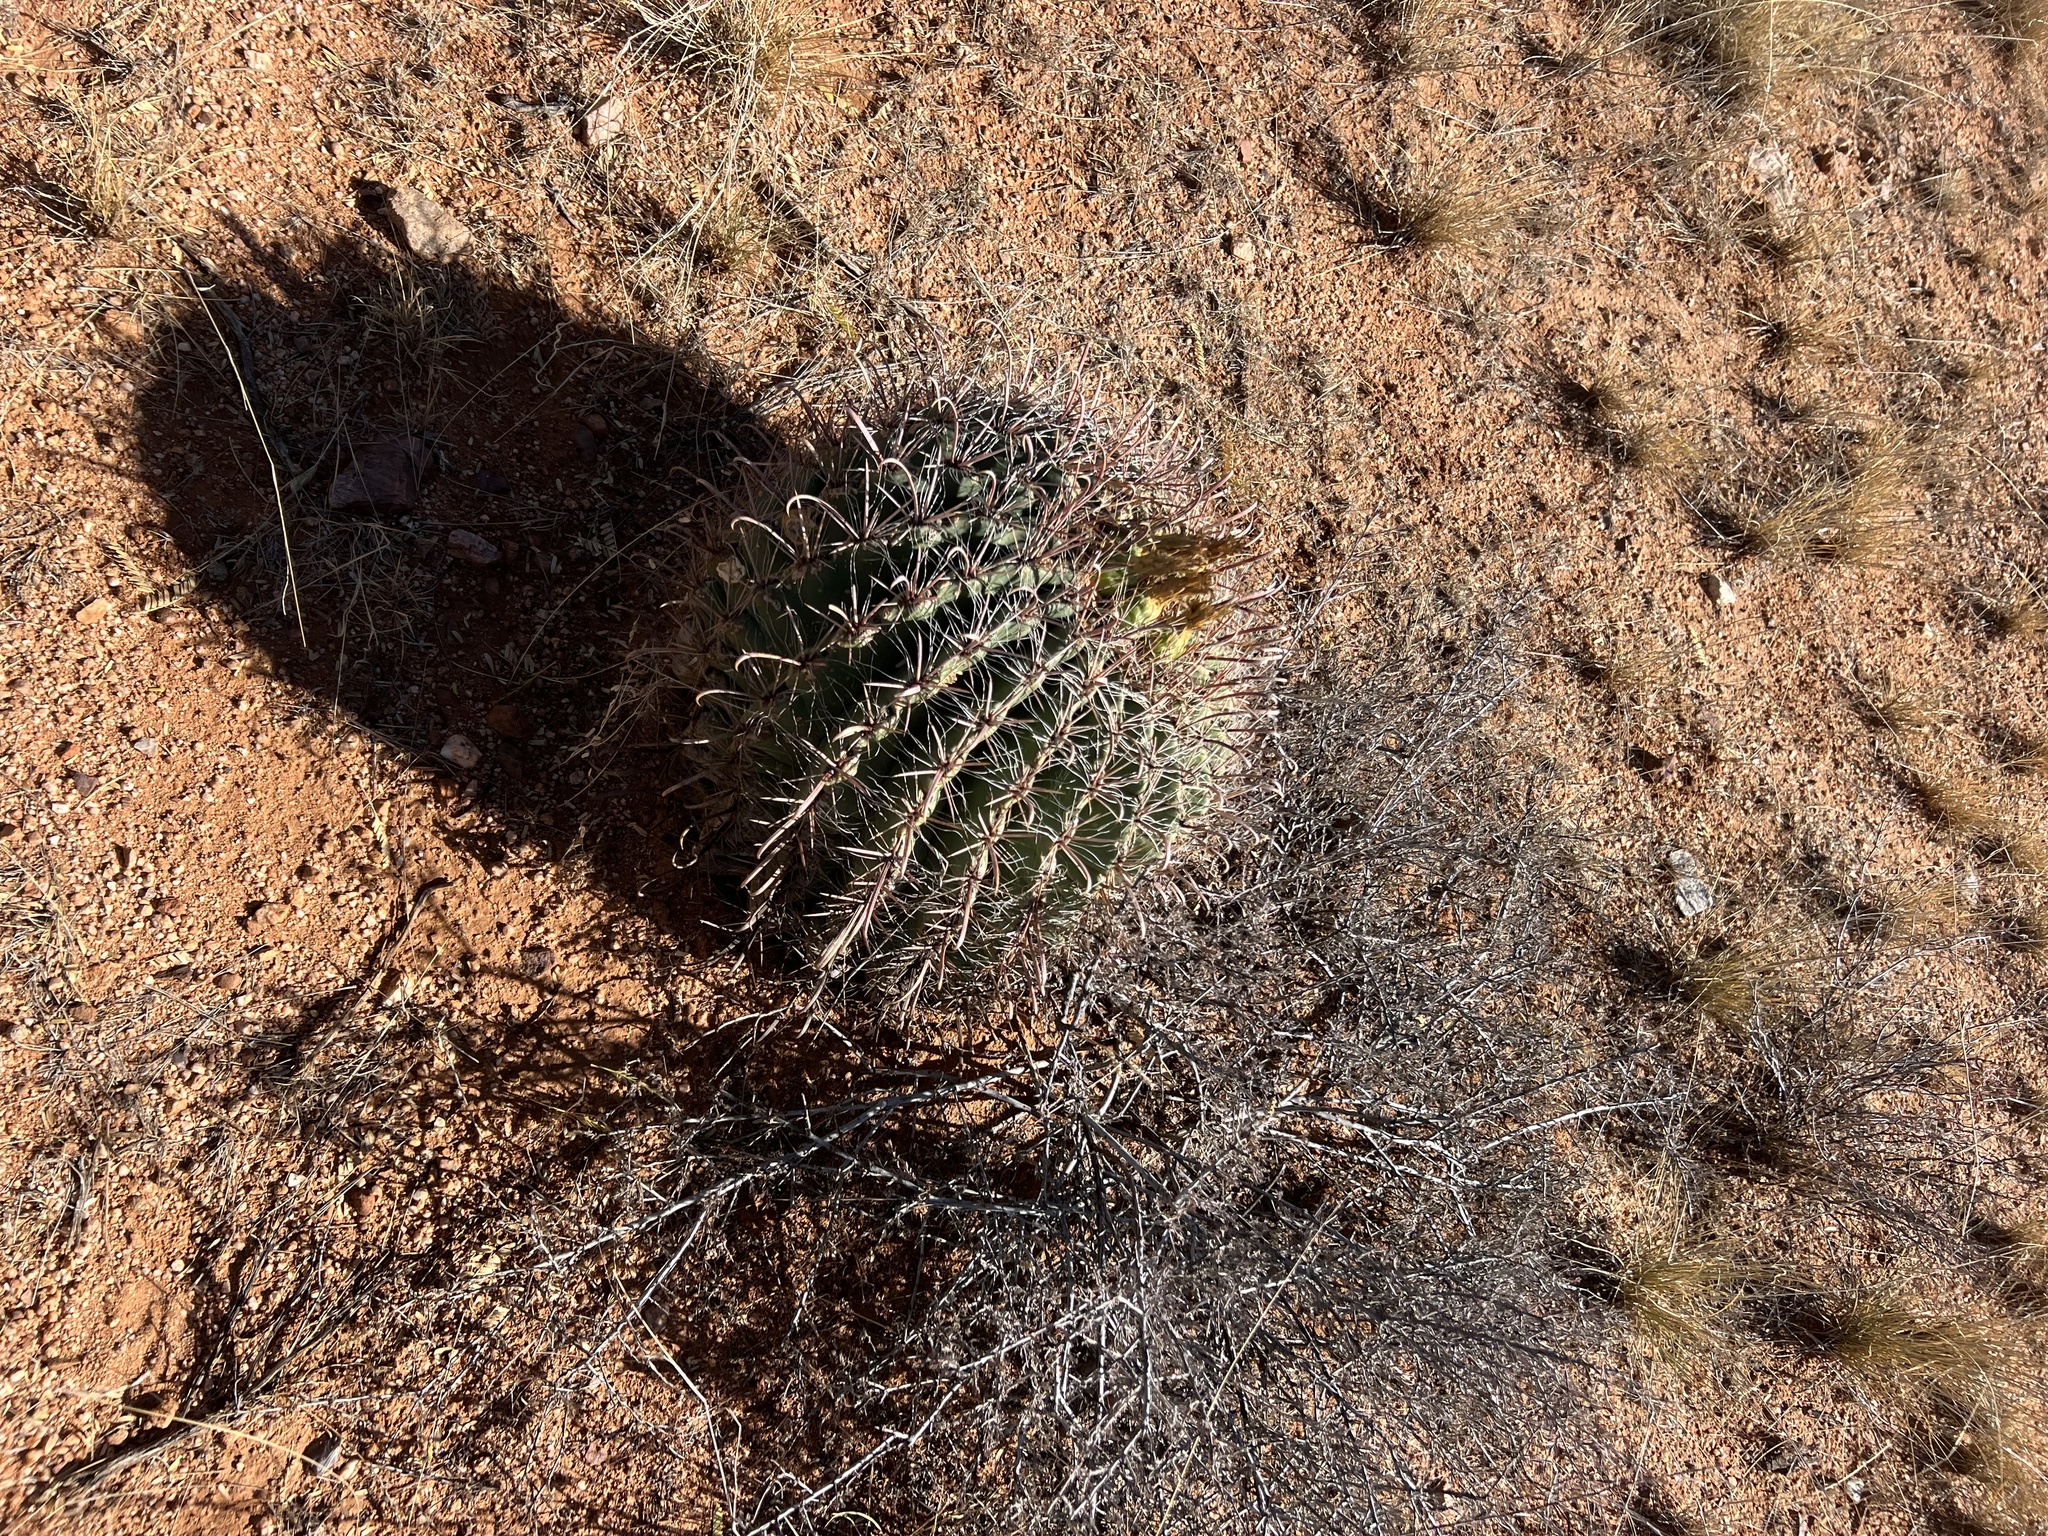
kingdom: Plantae
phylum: Tracheophyta
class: Magnoliopsida
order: Caryophyllales
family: Cactaceae
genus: Ferocactus
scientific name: Ferocactus wislizeni
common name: Candy barrel cactus
